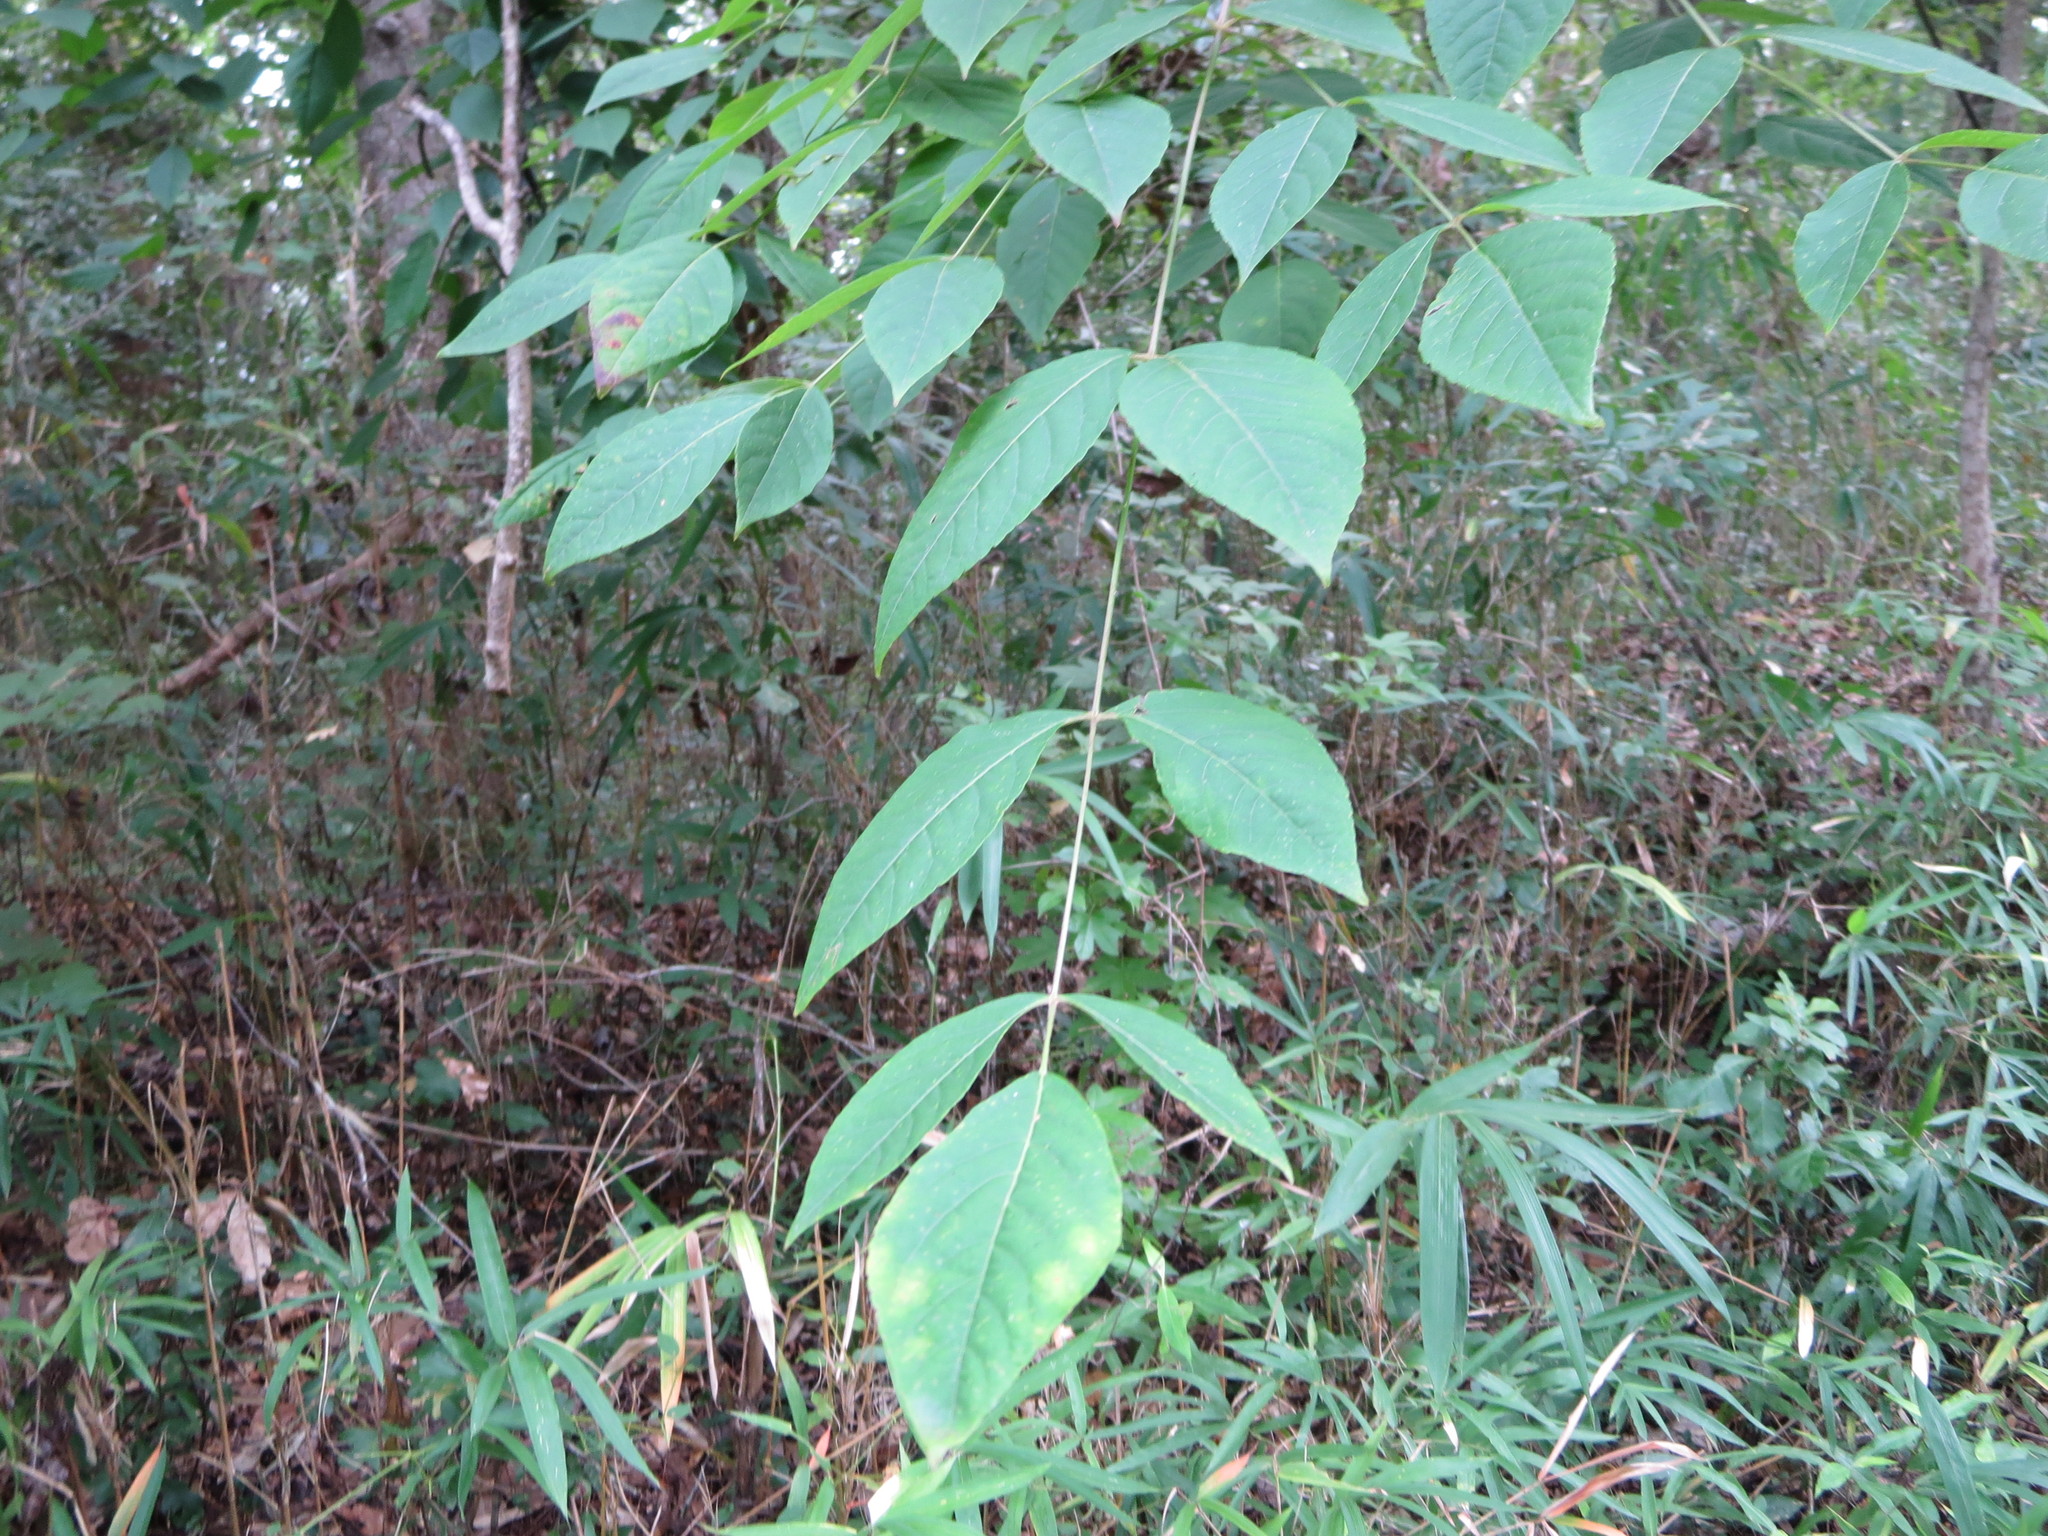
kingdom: Plantae
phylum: Tracheophyta
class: Magnoliopsida
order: Apiales
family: Araliaceae
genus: Aralia
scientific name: Aralia spinosa
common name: Hercules'-club
